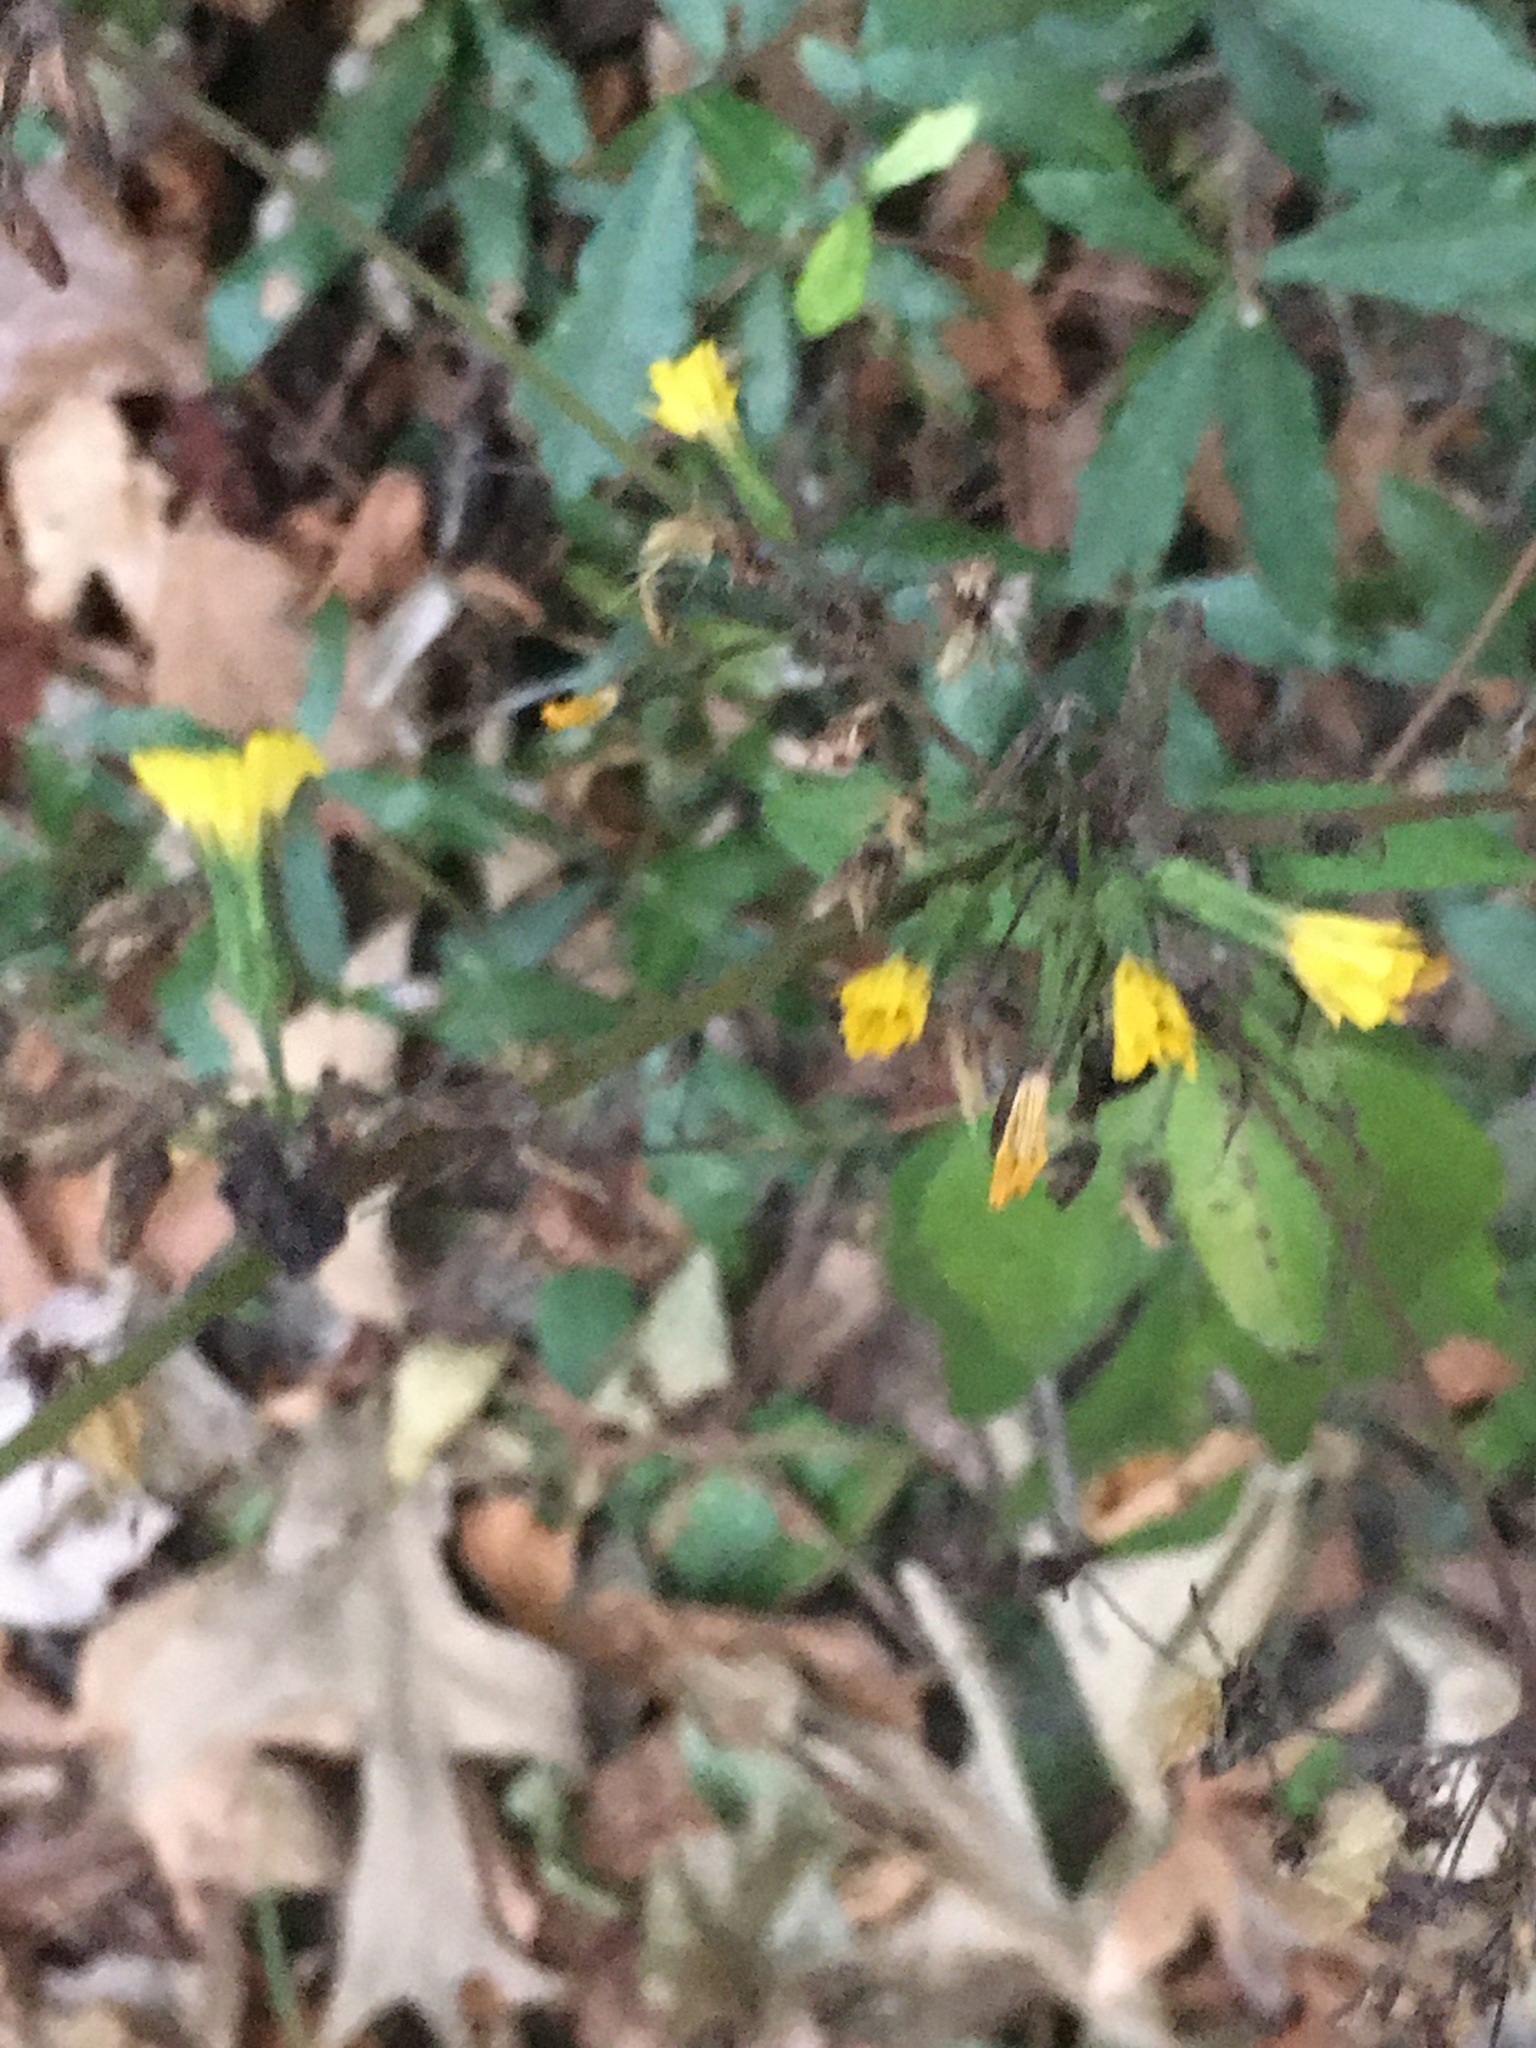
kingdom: Plantae
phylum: Tracheophyta
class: Magnoliopsida
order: Asterales
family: Asteraceae
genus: Youngia
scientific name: Youngia japonica
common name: Oriental false hawksbeard
